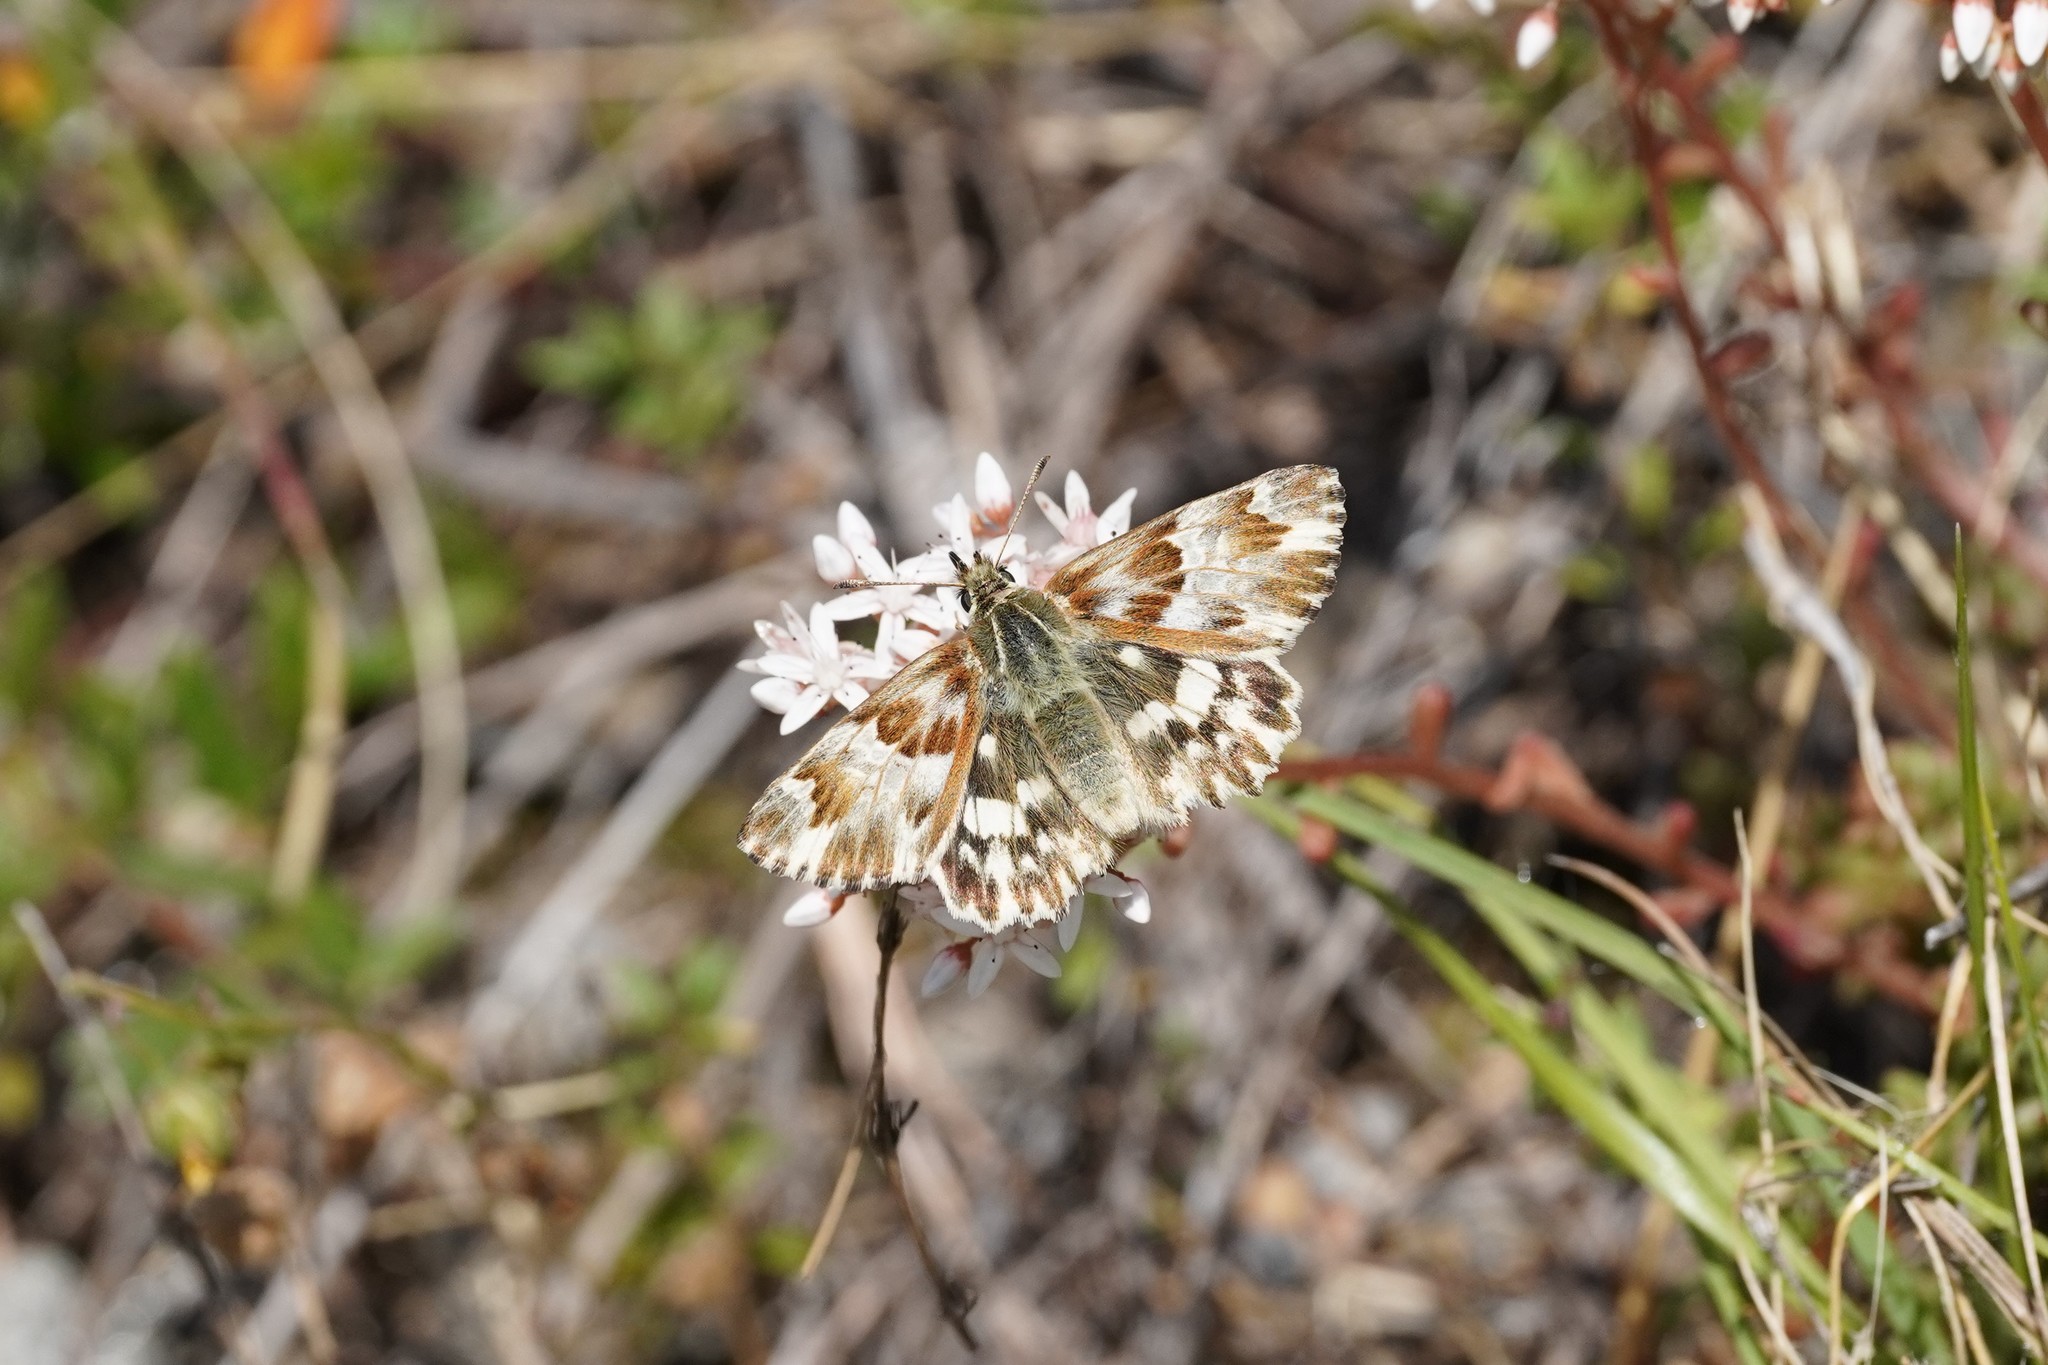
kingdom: Animalia
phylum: Arthropoda
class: Insecta
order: Lepidoptera
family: Hesperiidae
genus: Carcharodus
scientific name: Carcharodus lavatherae
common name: Marbled skipper
